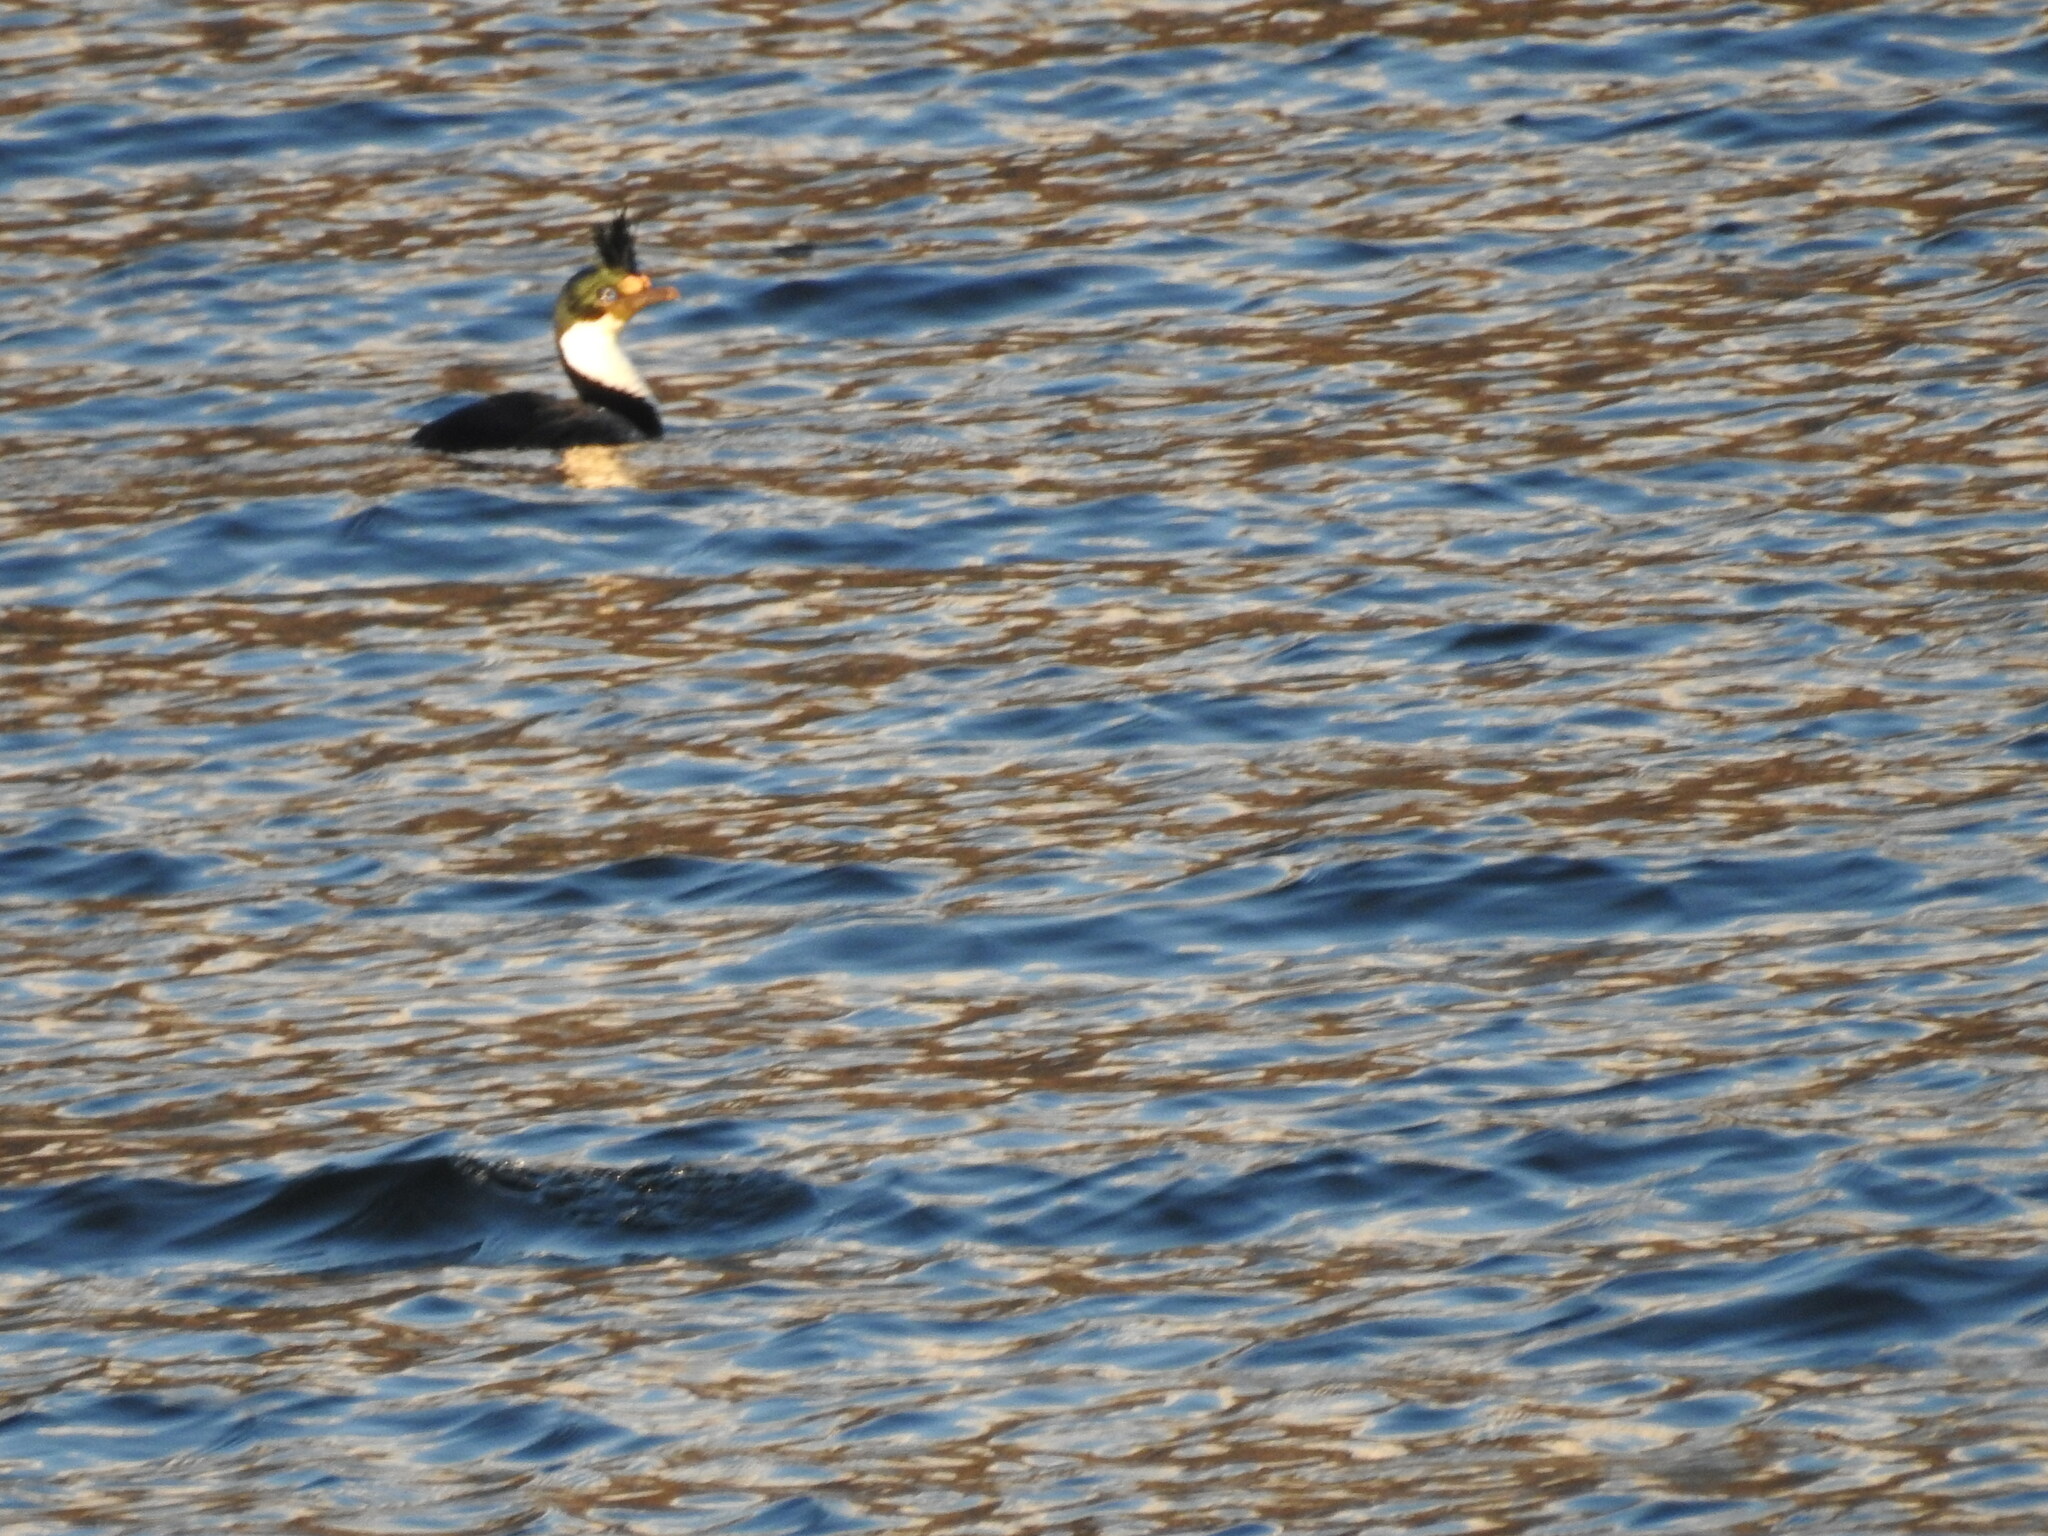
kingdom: Animalia
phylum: Chordata
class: Aves
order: Suliformes
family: Phalacrocoracidae
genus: Leucocarbo
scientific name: Leucocarbo atriceps
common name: Imperial shag
